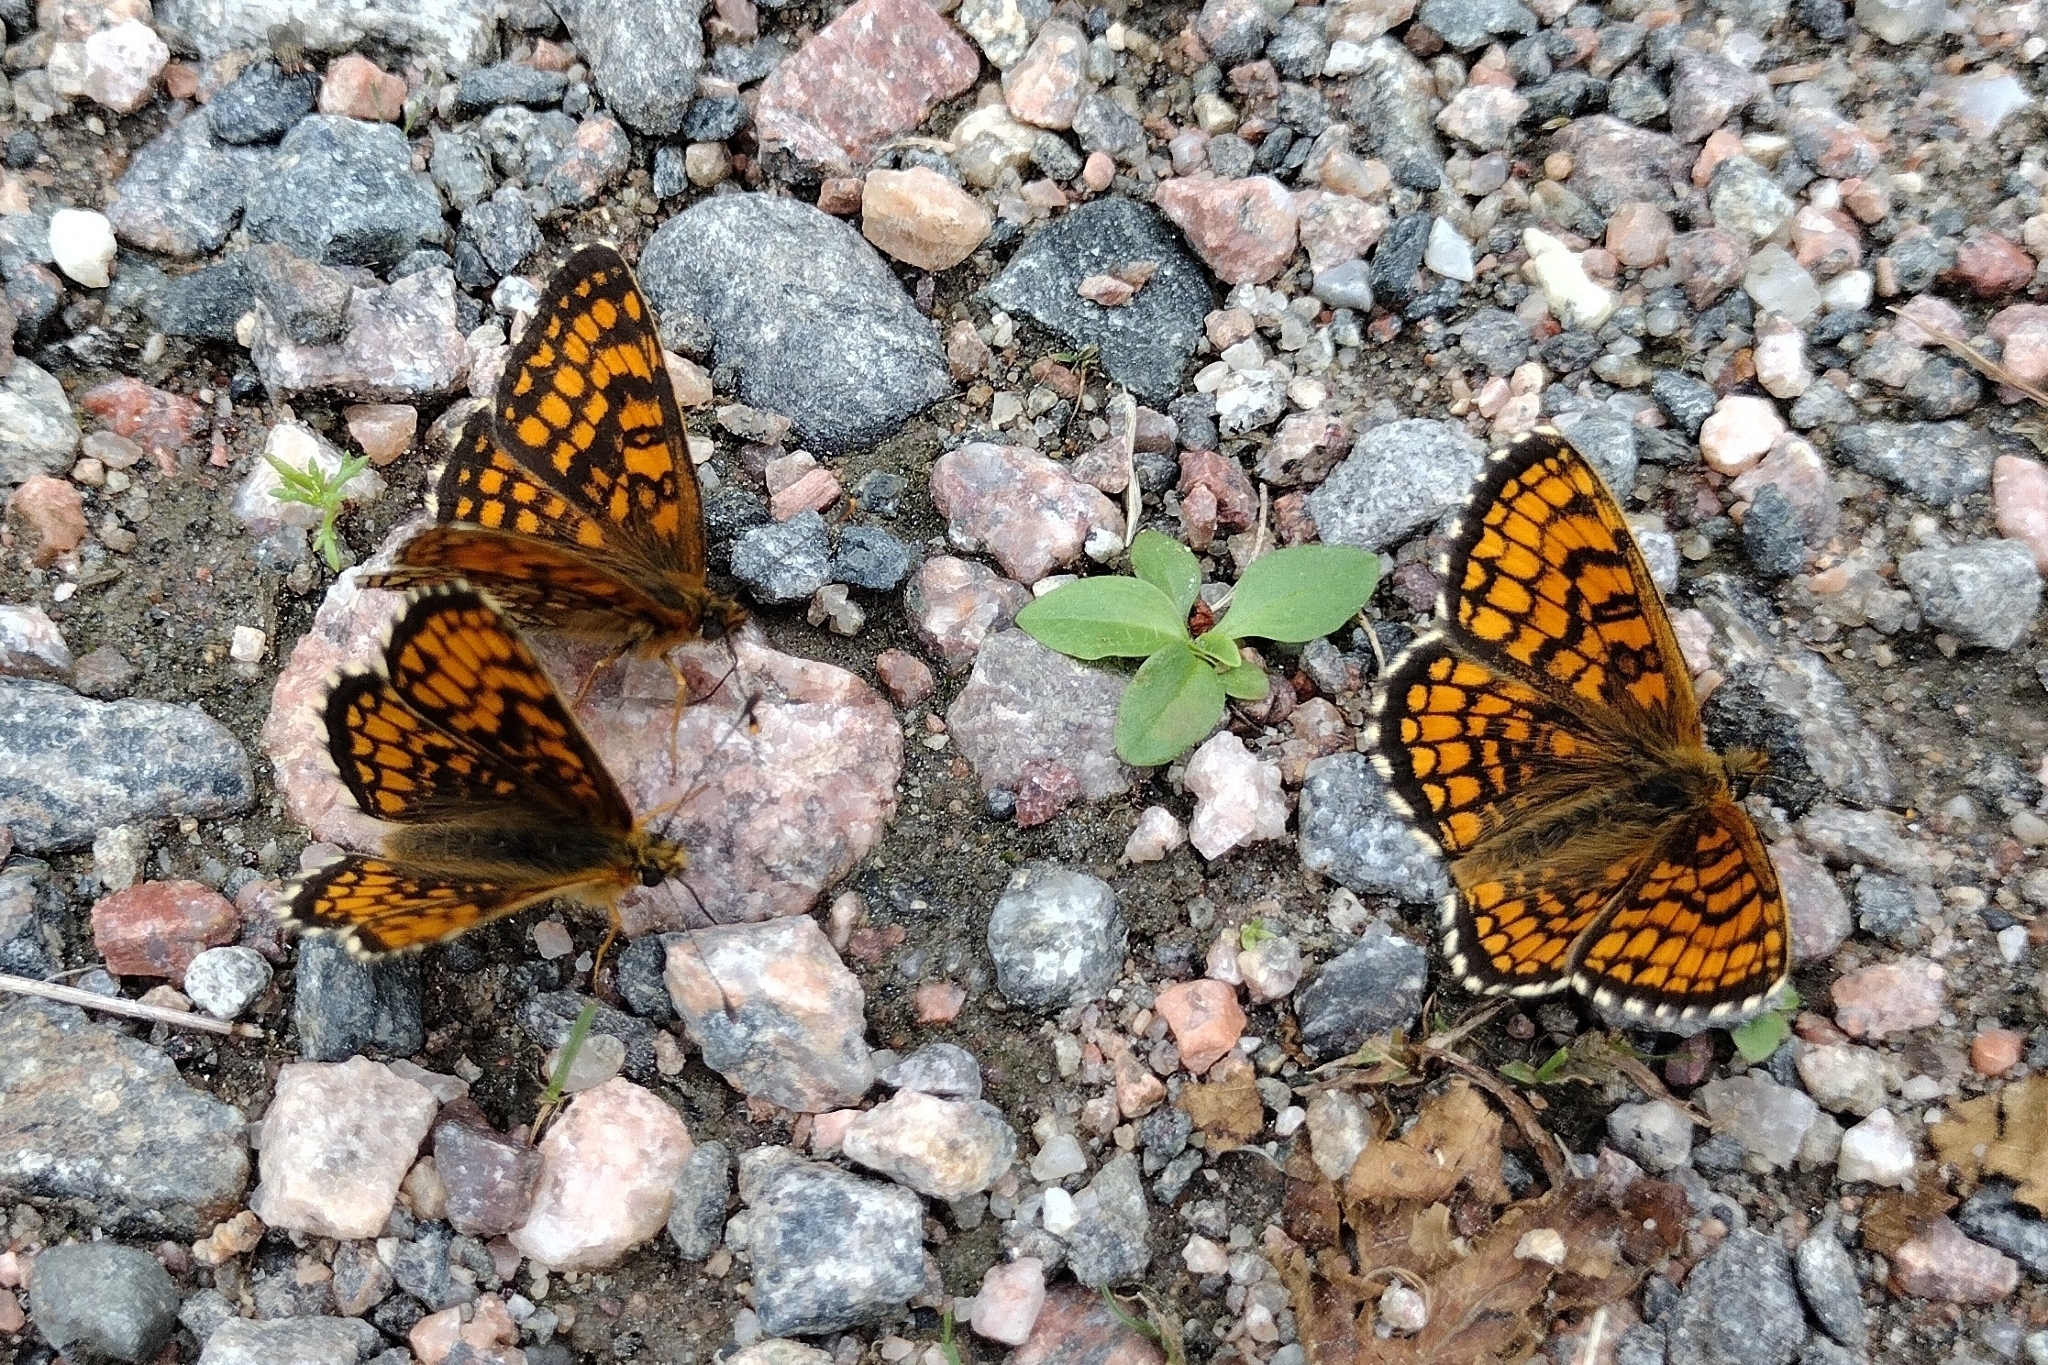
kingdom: Animalia
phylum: Arthropoda
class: Insecta
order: Lepidoptera
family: Nymphalidae
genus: Melitaea
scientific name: Melitaea athalia
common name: Heath fritillary
